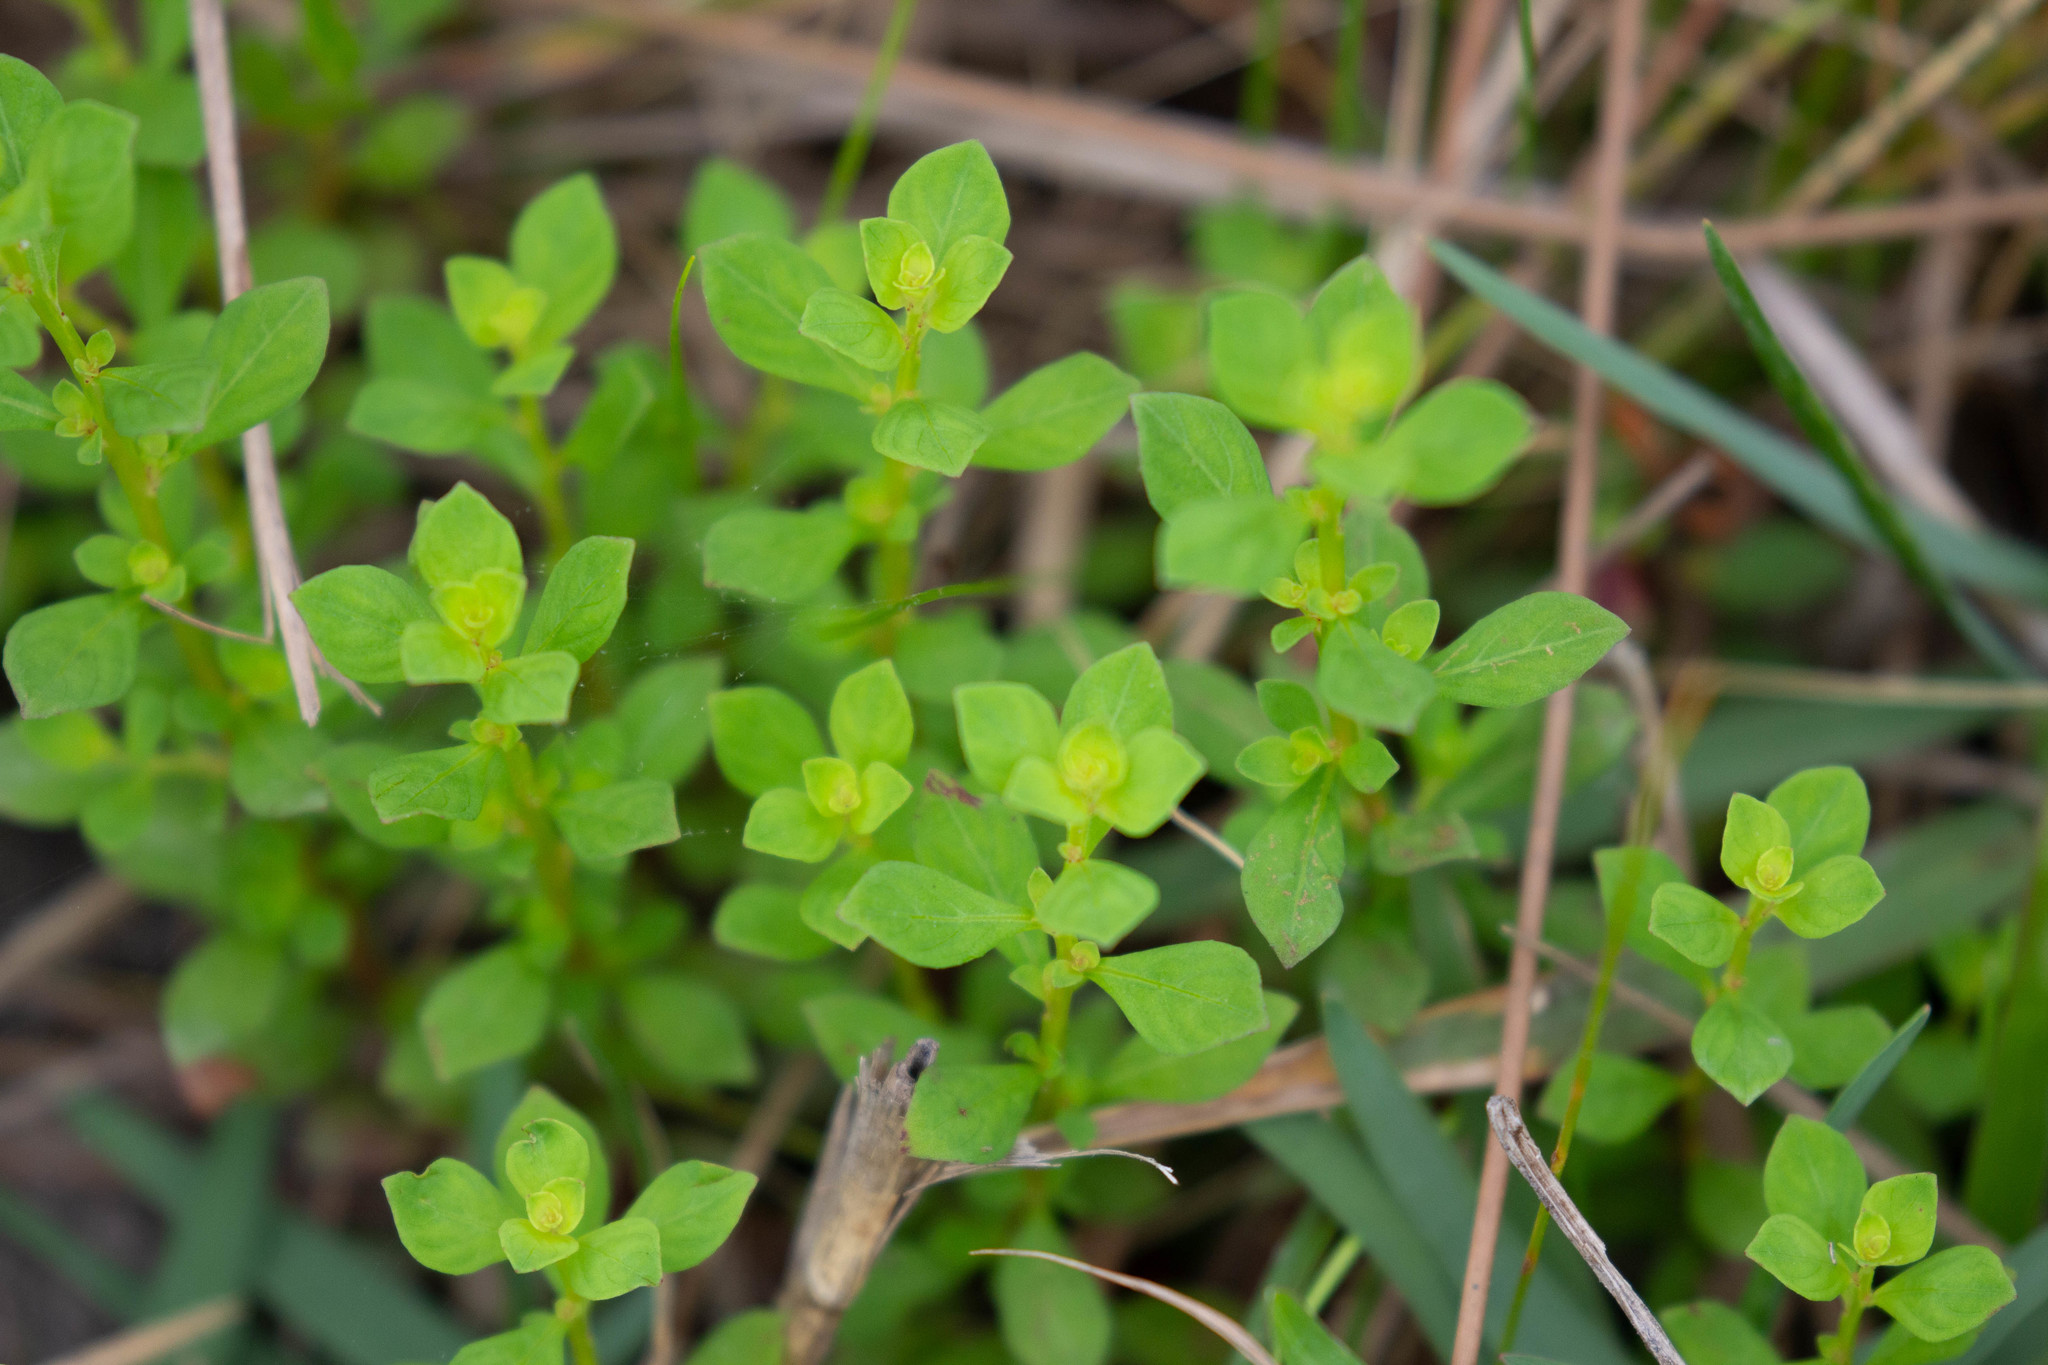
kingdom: Plantae
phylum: Tracheophyta
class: Magnoliopsida
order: Myrtales
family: Onagraceae
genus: Ludwigia
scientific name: Ludwigia microcarpa
